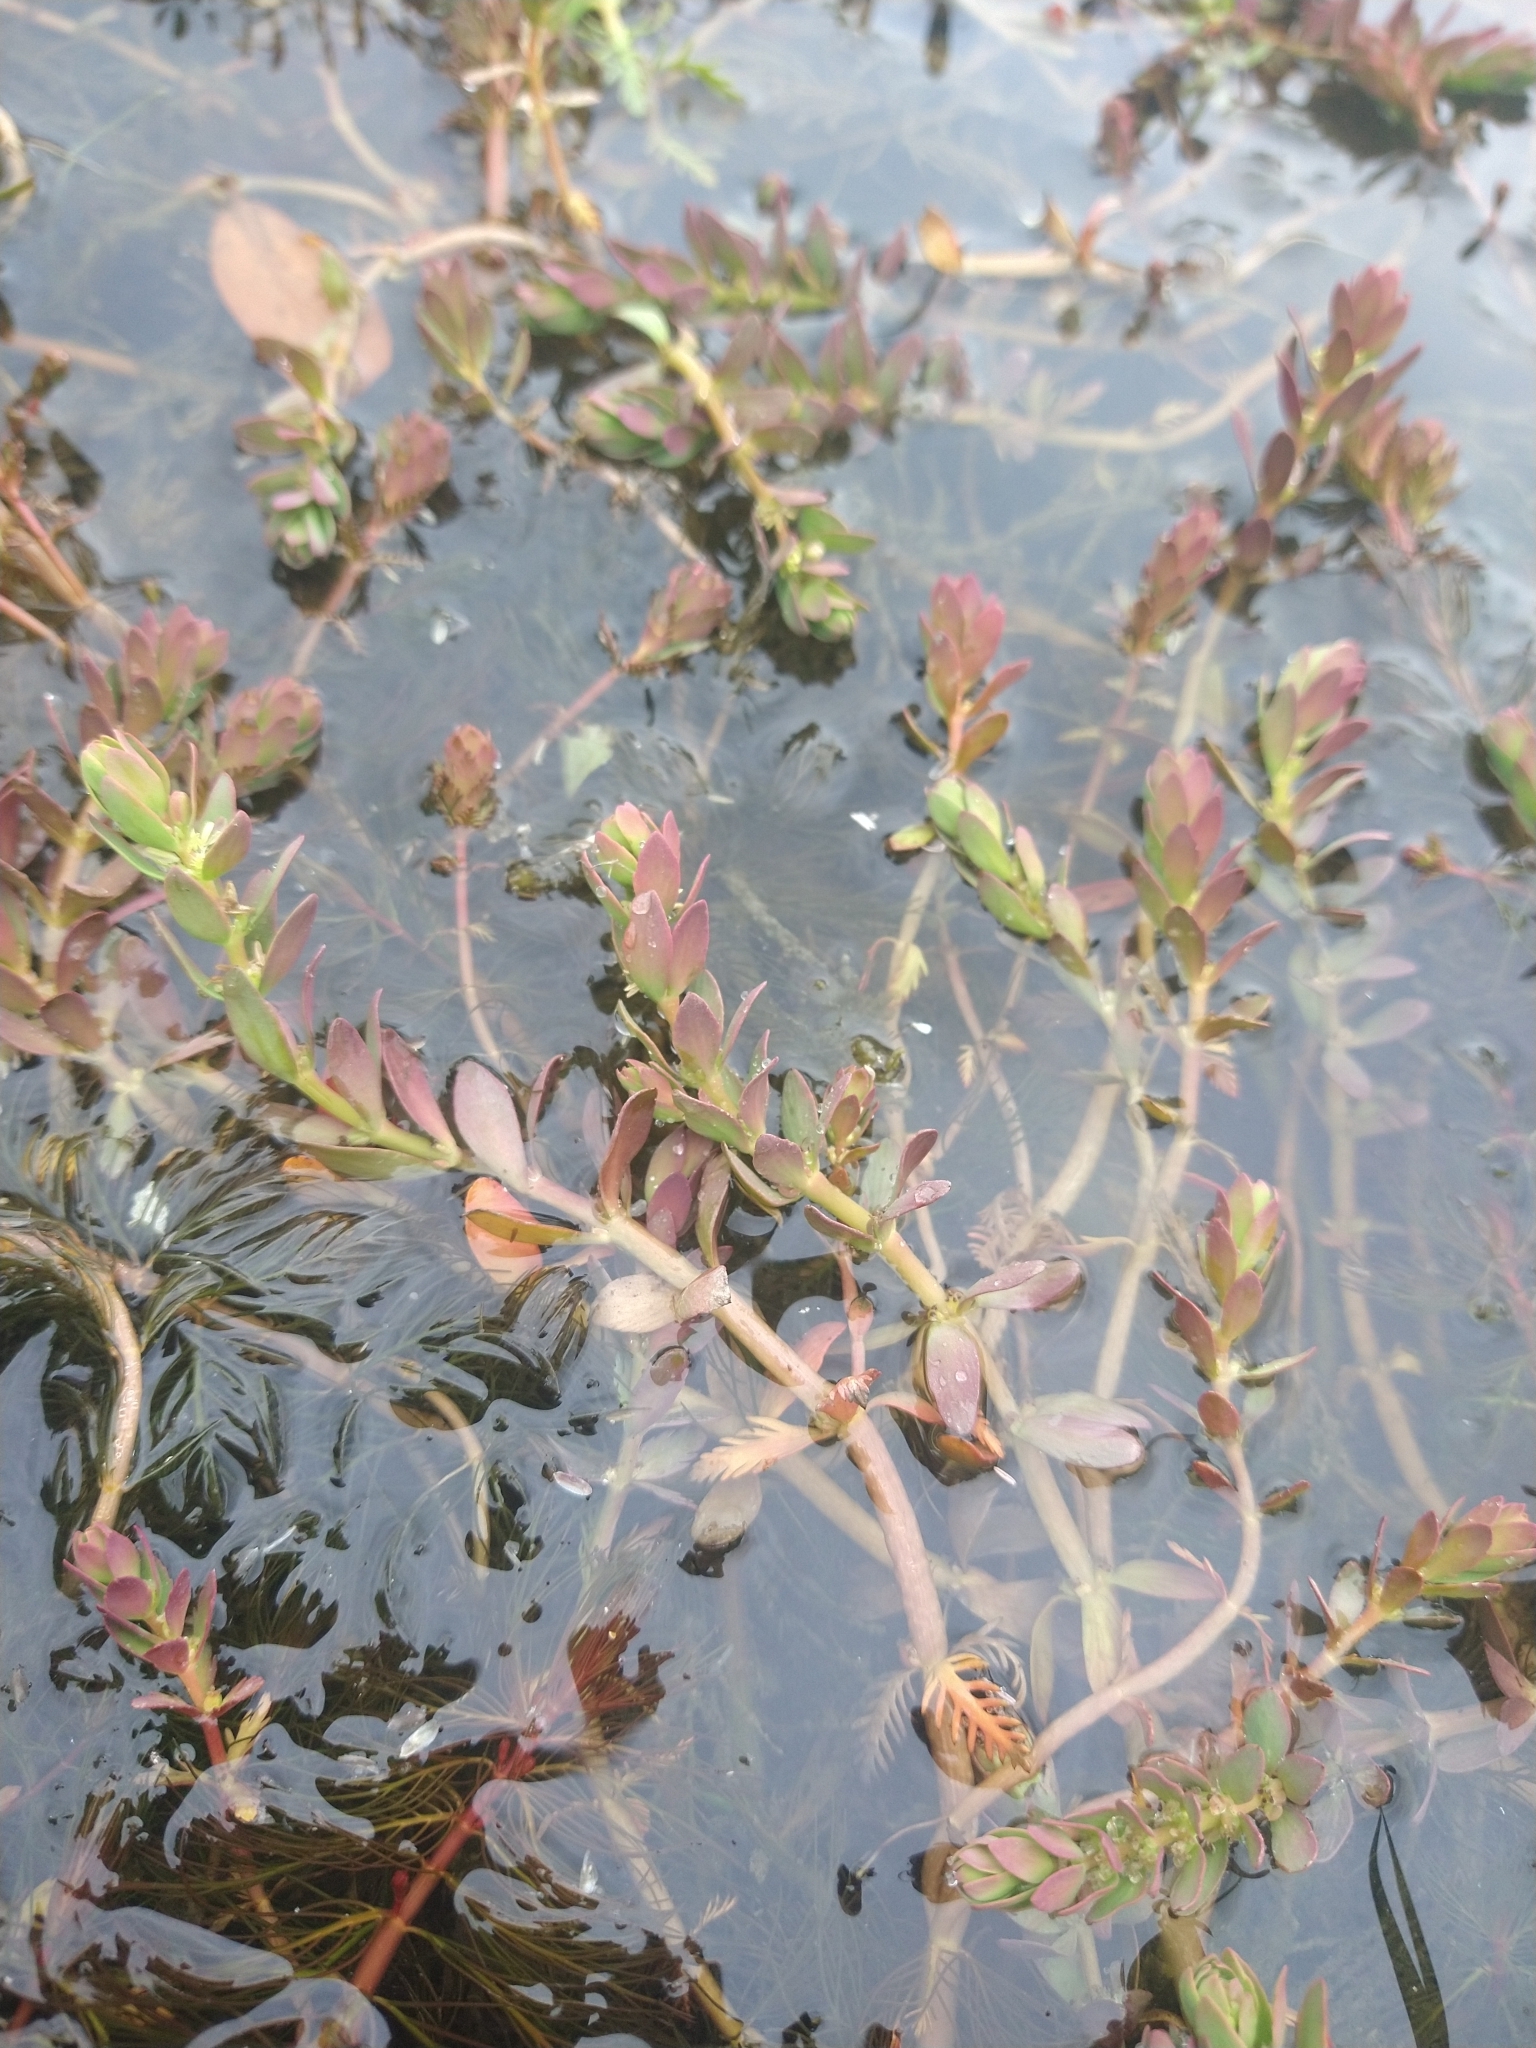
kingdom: Plantae
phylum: Tracheophyta
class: Magnoliopsida
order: Saxifragales
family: Haloragaceae
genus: Myriophyllum
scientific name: Myriophyllum quitense
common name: Andean water milfoil
